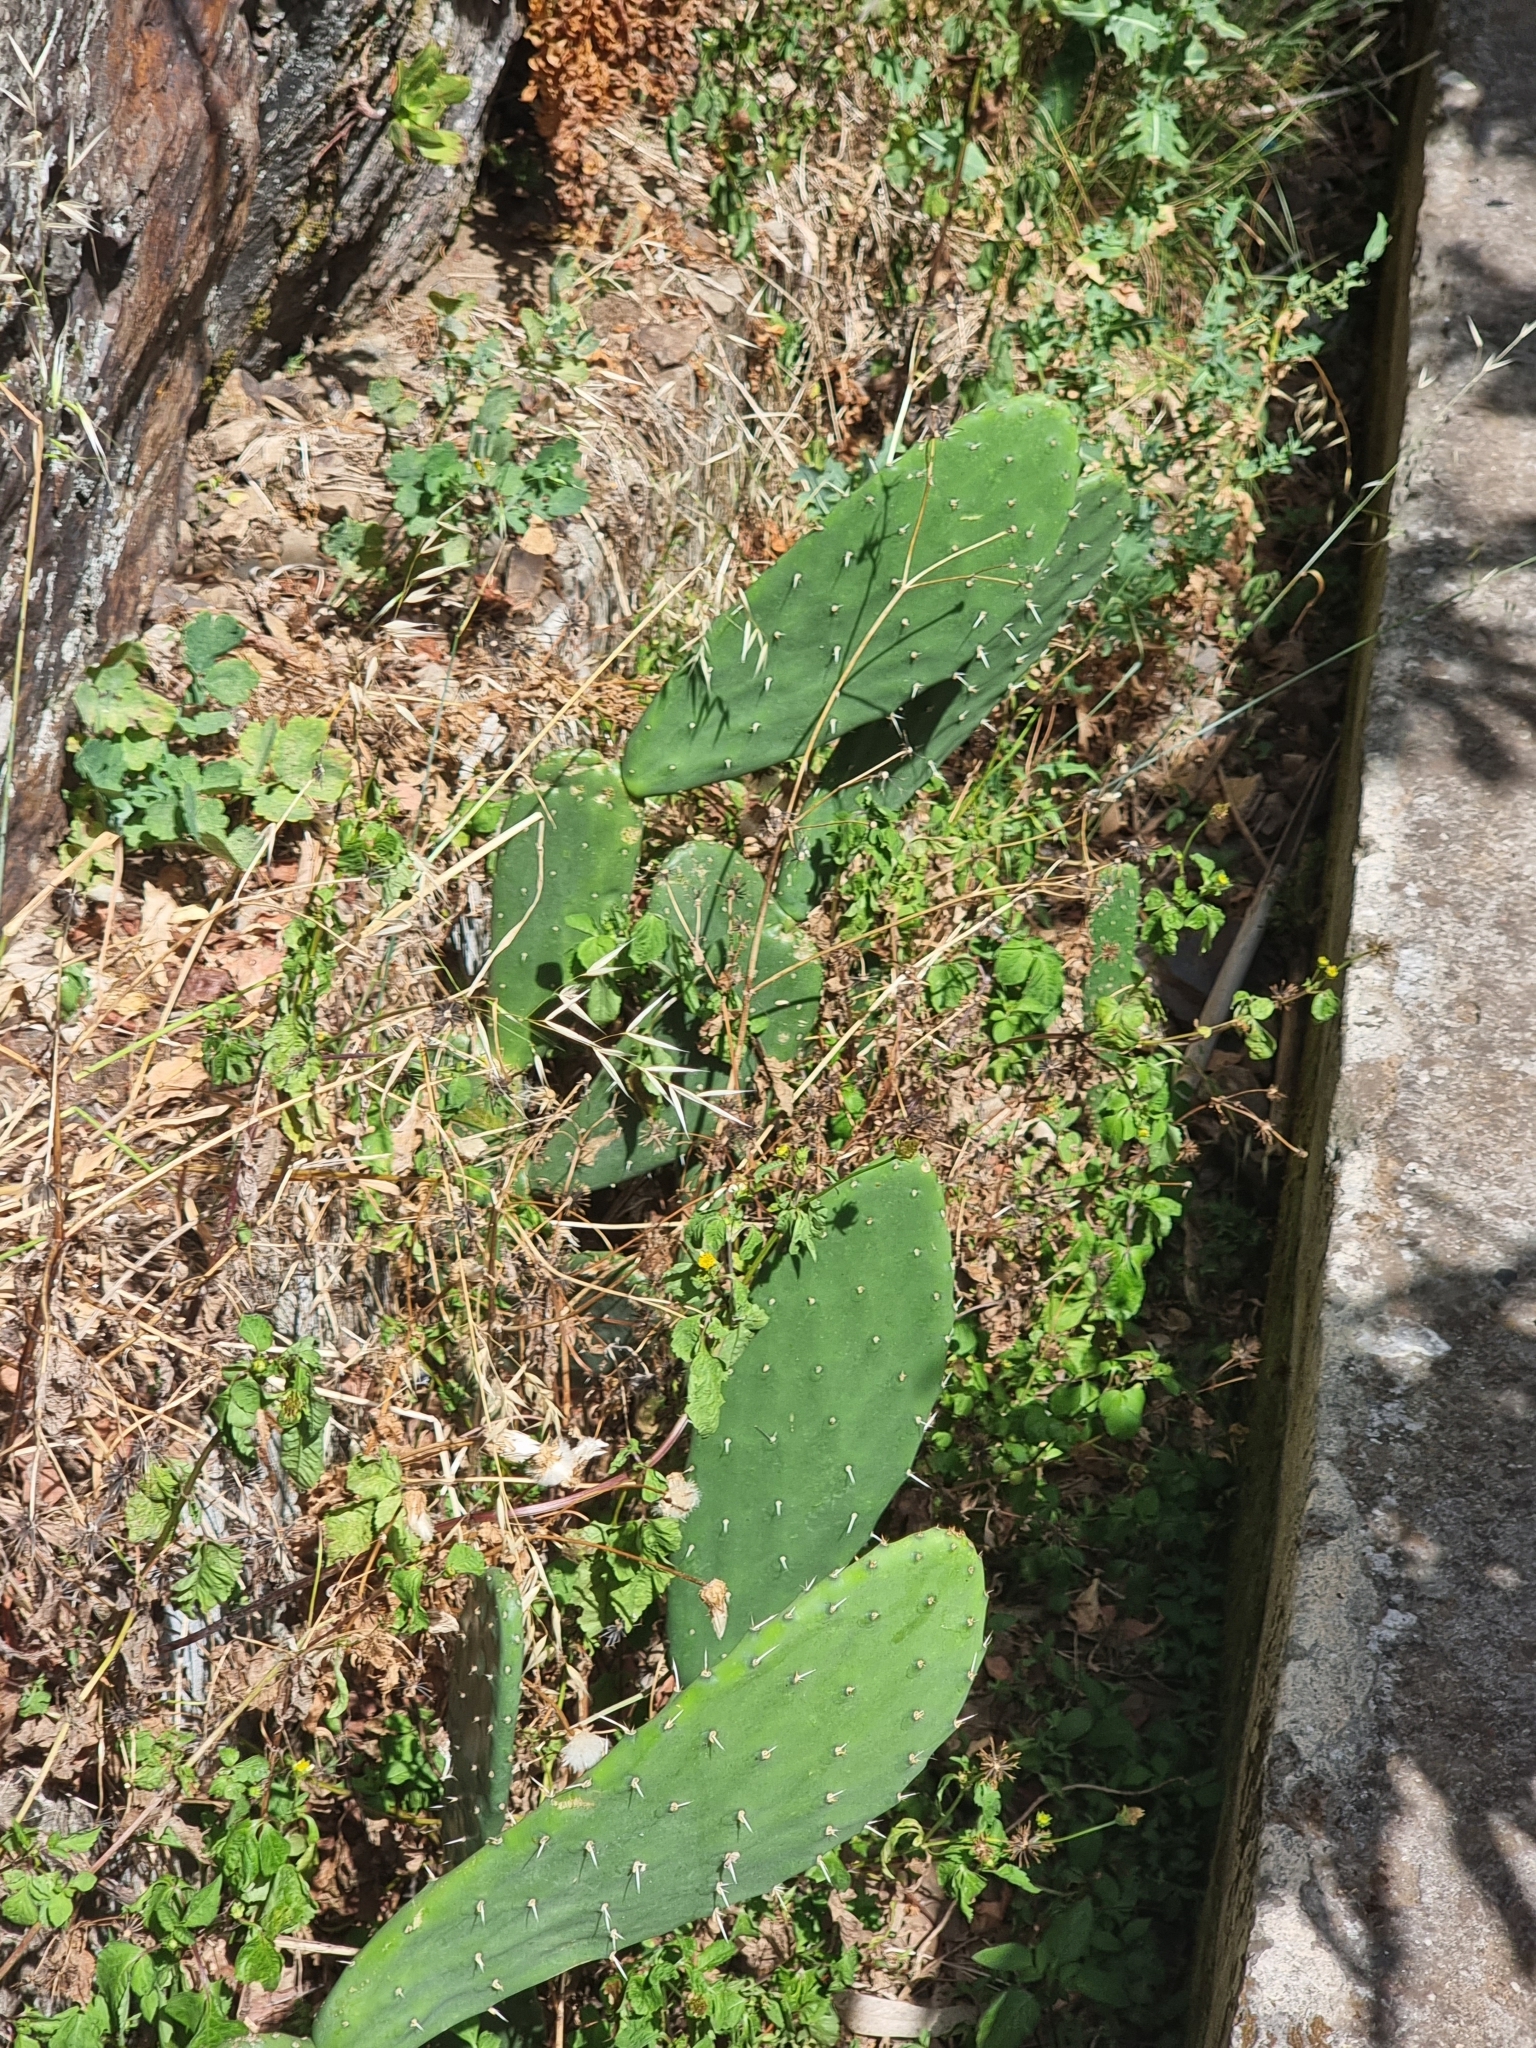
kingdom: Plantae
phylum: Tracheophyta
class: Magnoliopsida
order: Caryophyllales
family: Cactaceae
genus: Opuntia
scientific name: Opuntia ficus-indica
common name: Barbary fig
